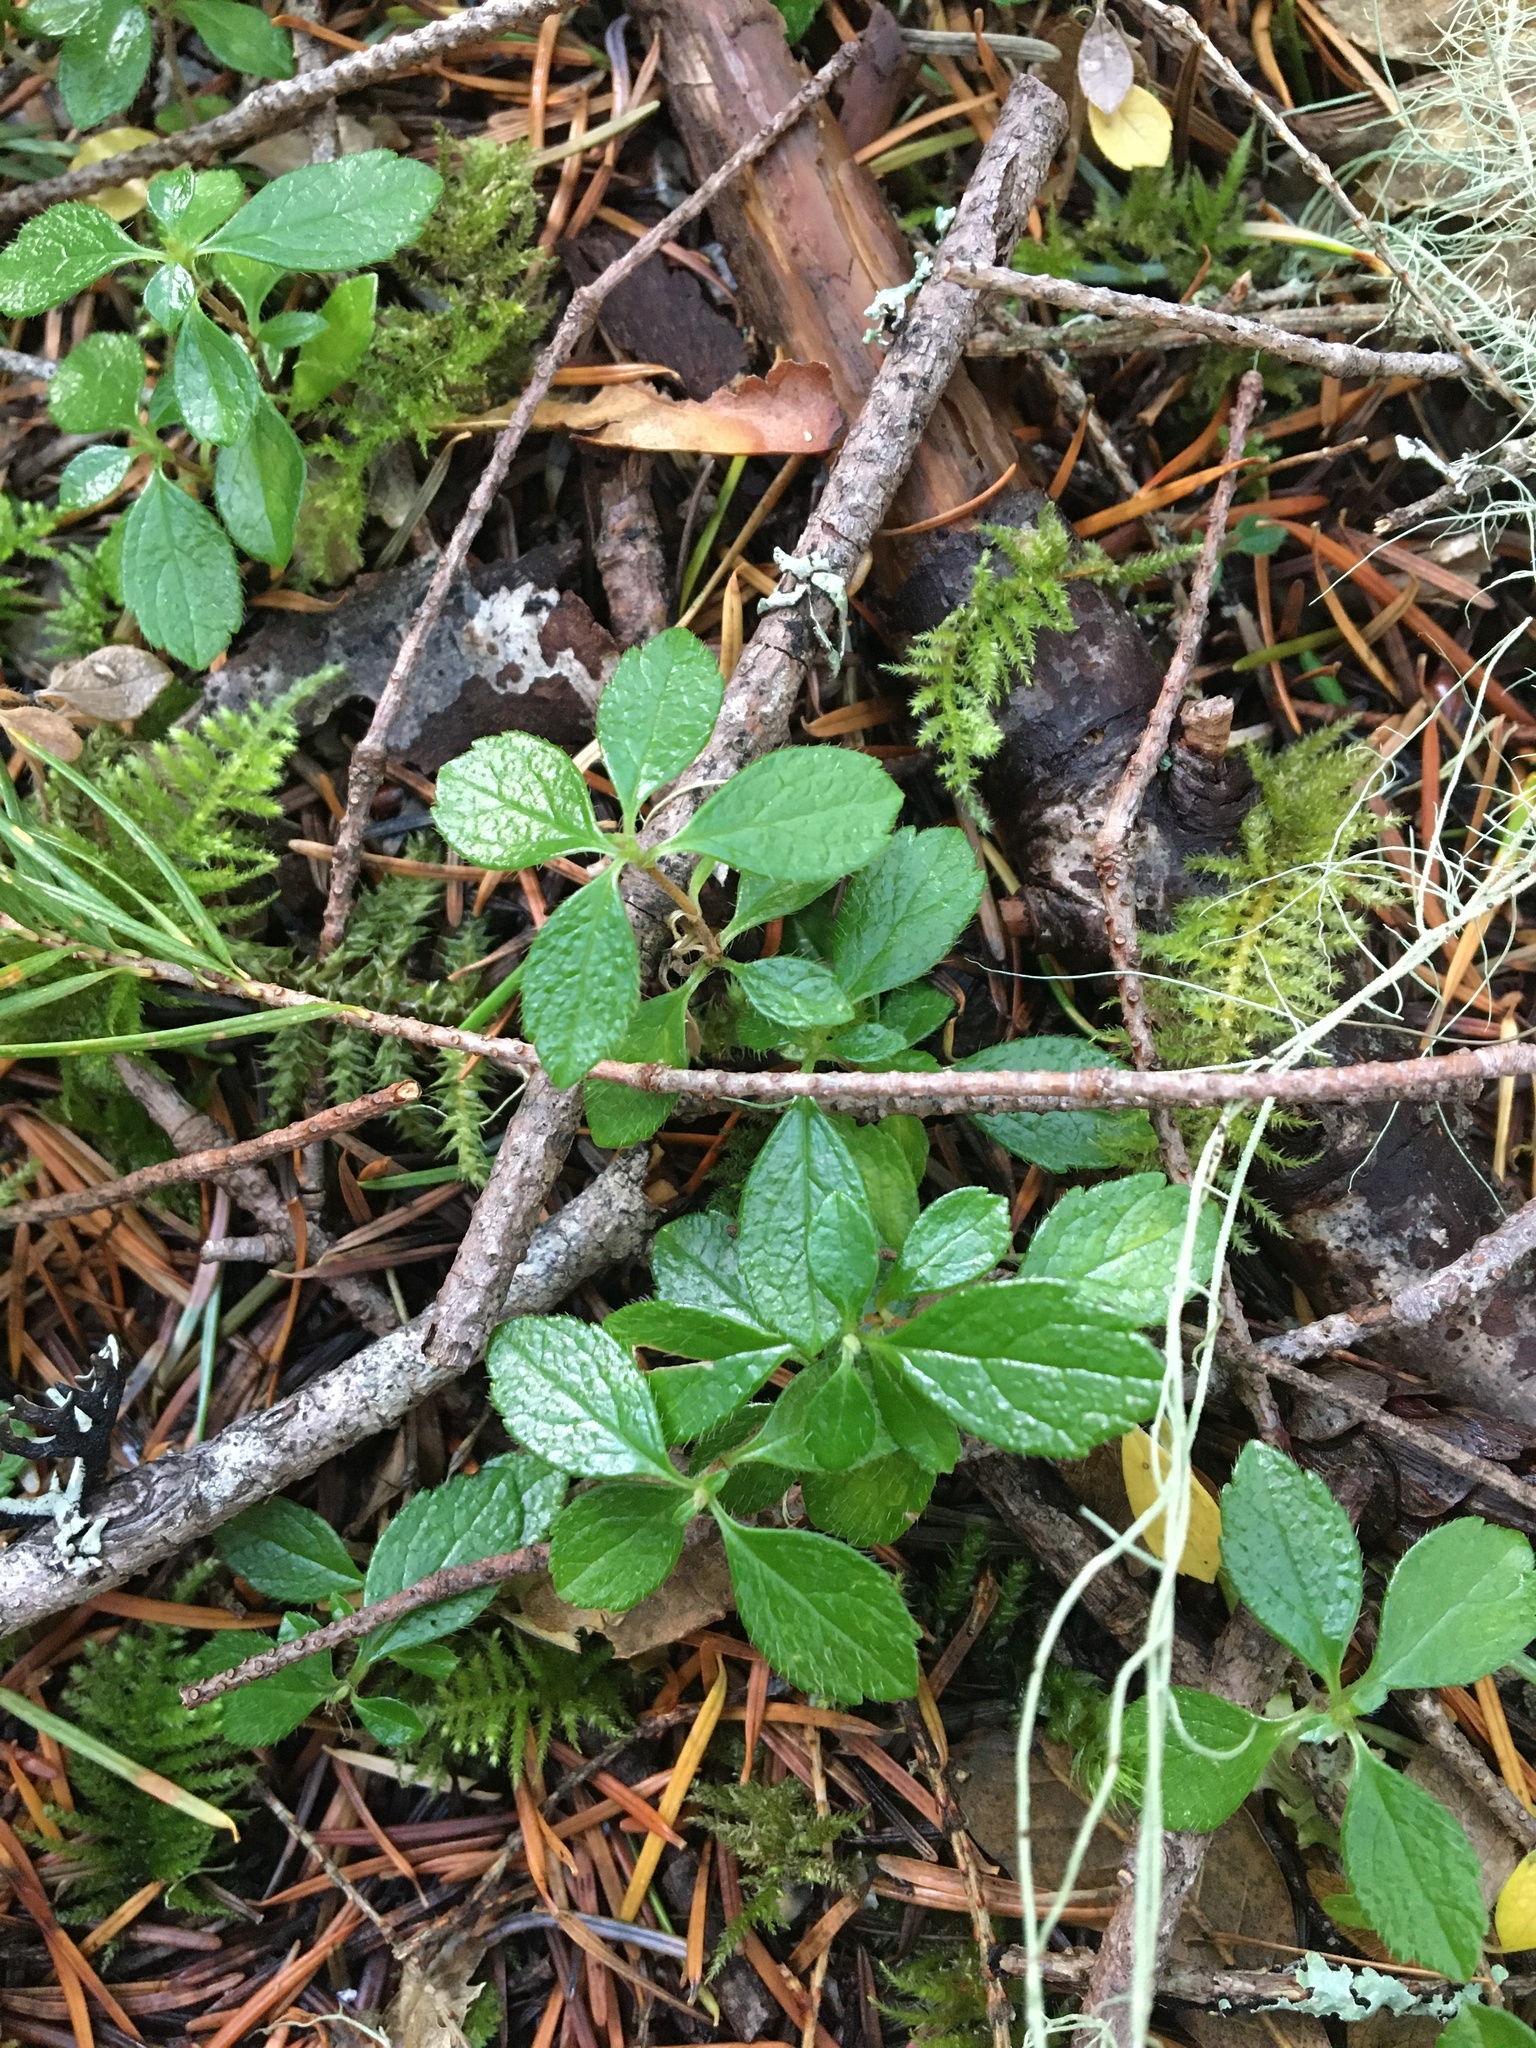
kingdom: Plantae
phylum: Tracheophyta
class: Magnoliopsida
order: Dipsacales
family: Caprifoliaceae
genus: Linnaea
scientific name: Linnaea borealis
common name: Twinflower
